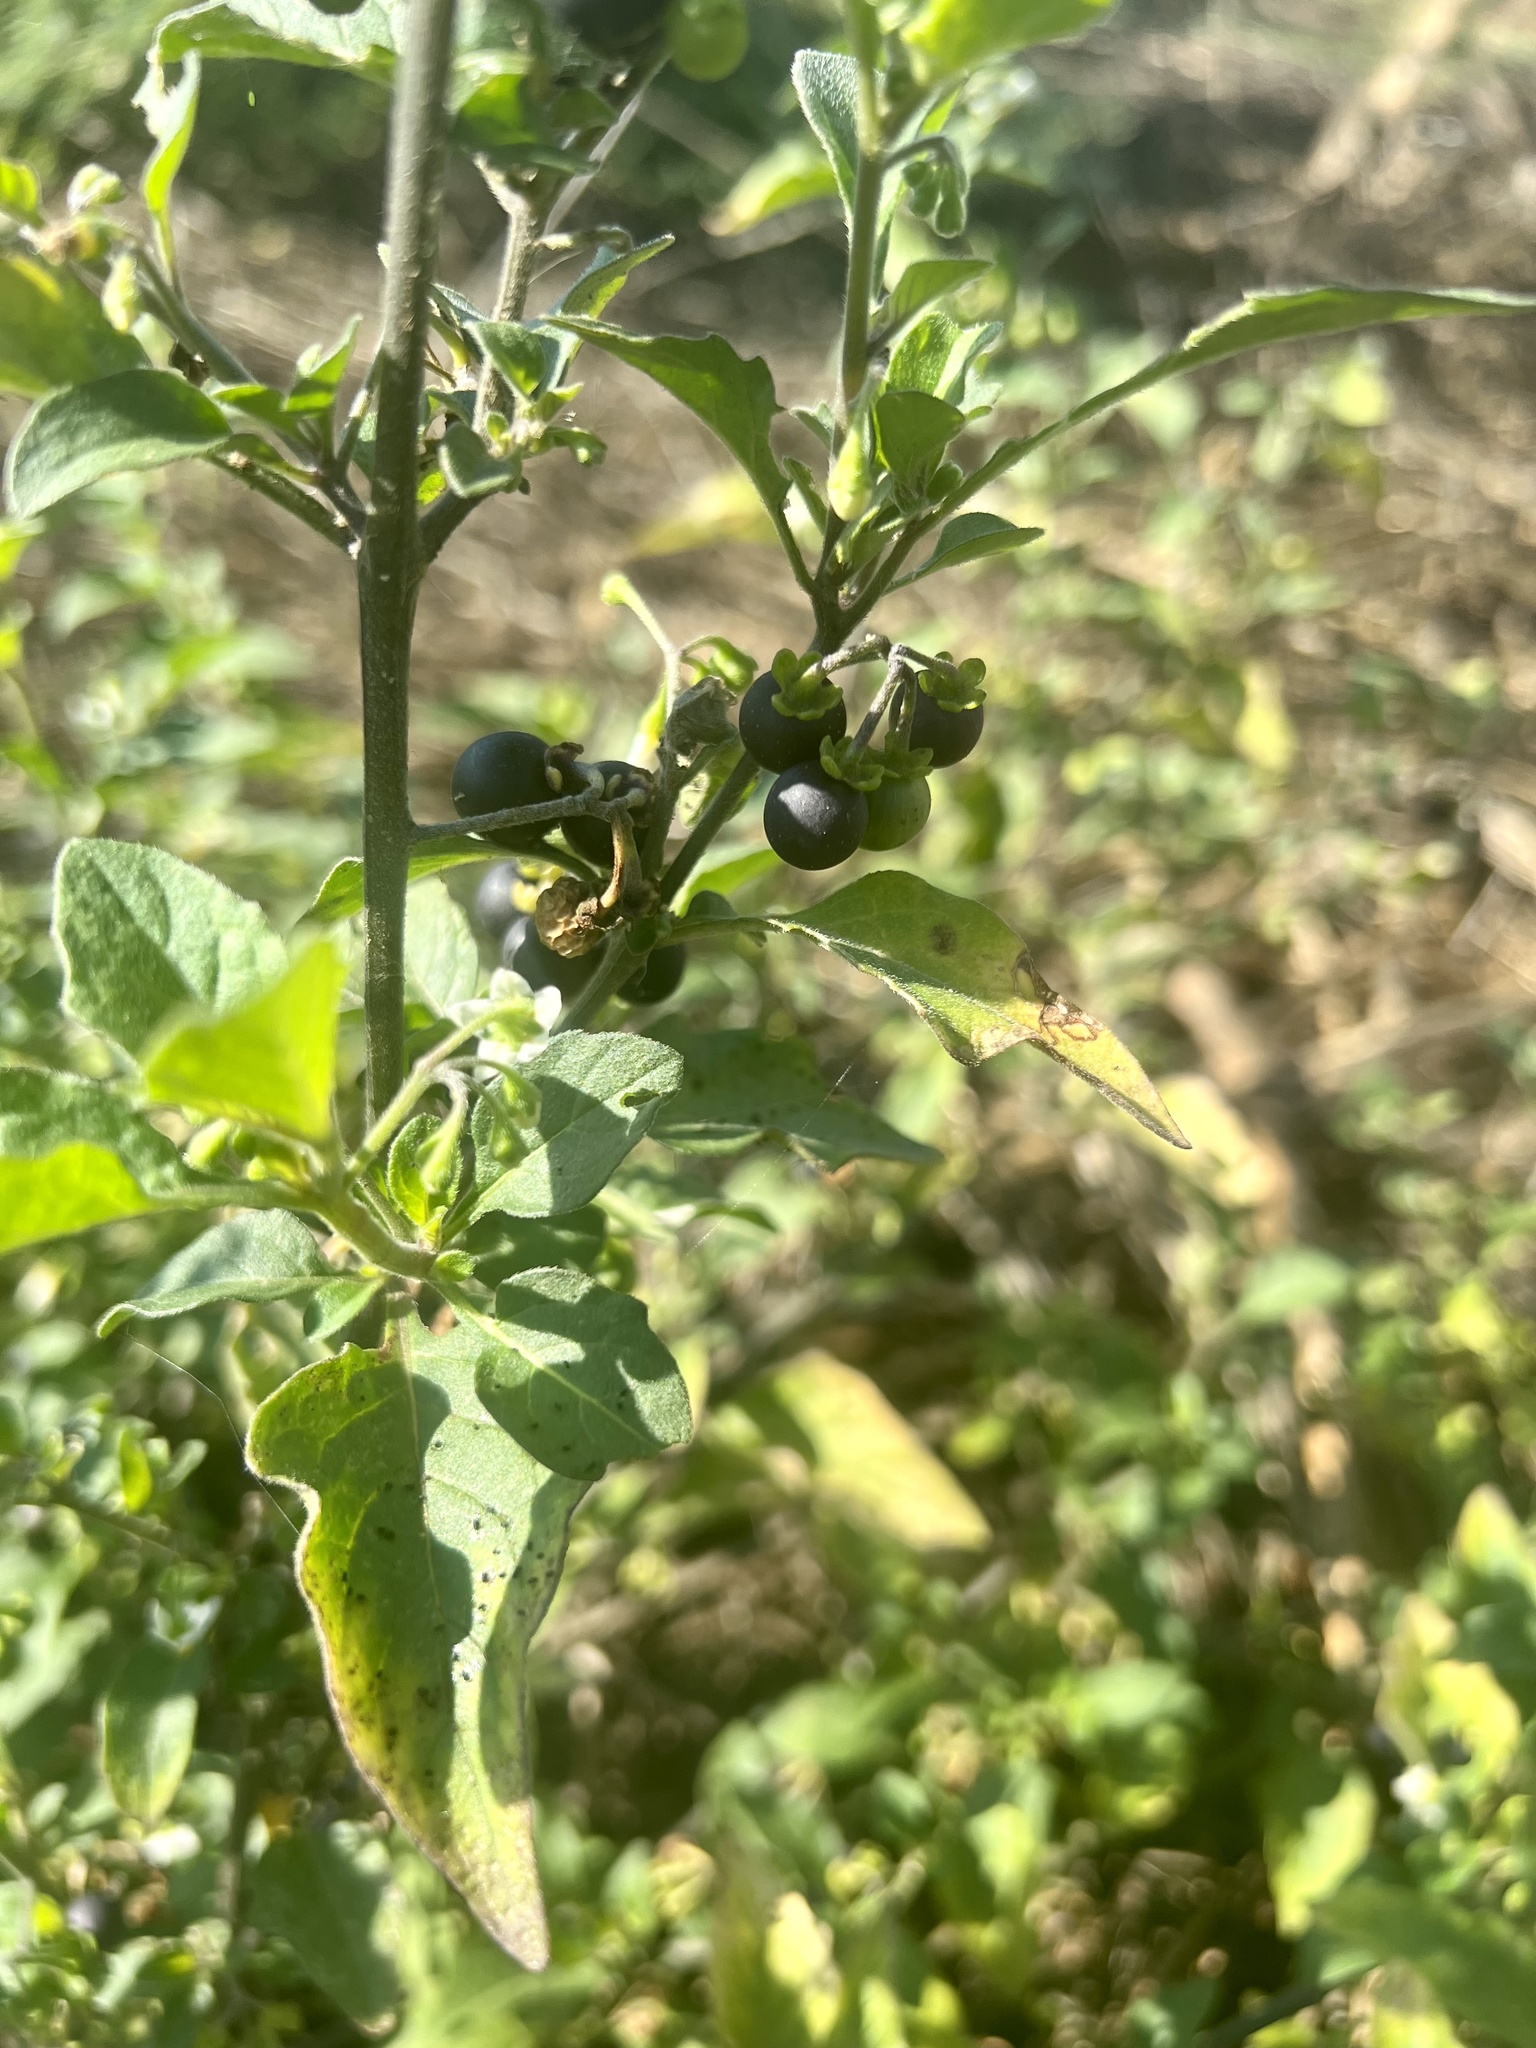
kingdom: Plantae
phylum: Tracheophyta
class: Magnoliopsida
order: Solanales
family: Solanaceae
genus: Solanum
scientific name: Solanum nigrum
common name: Black nightshade
